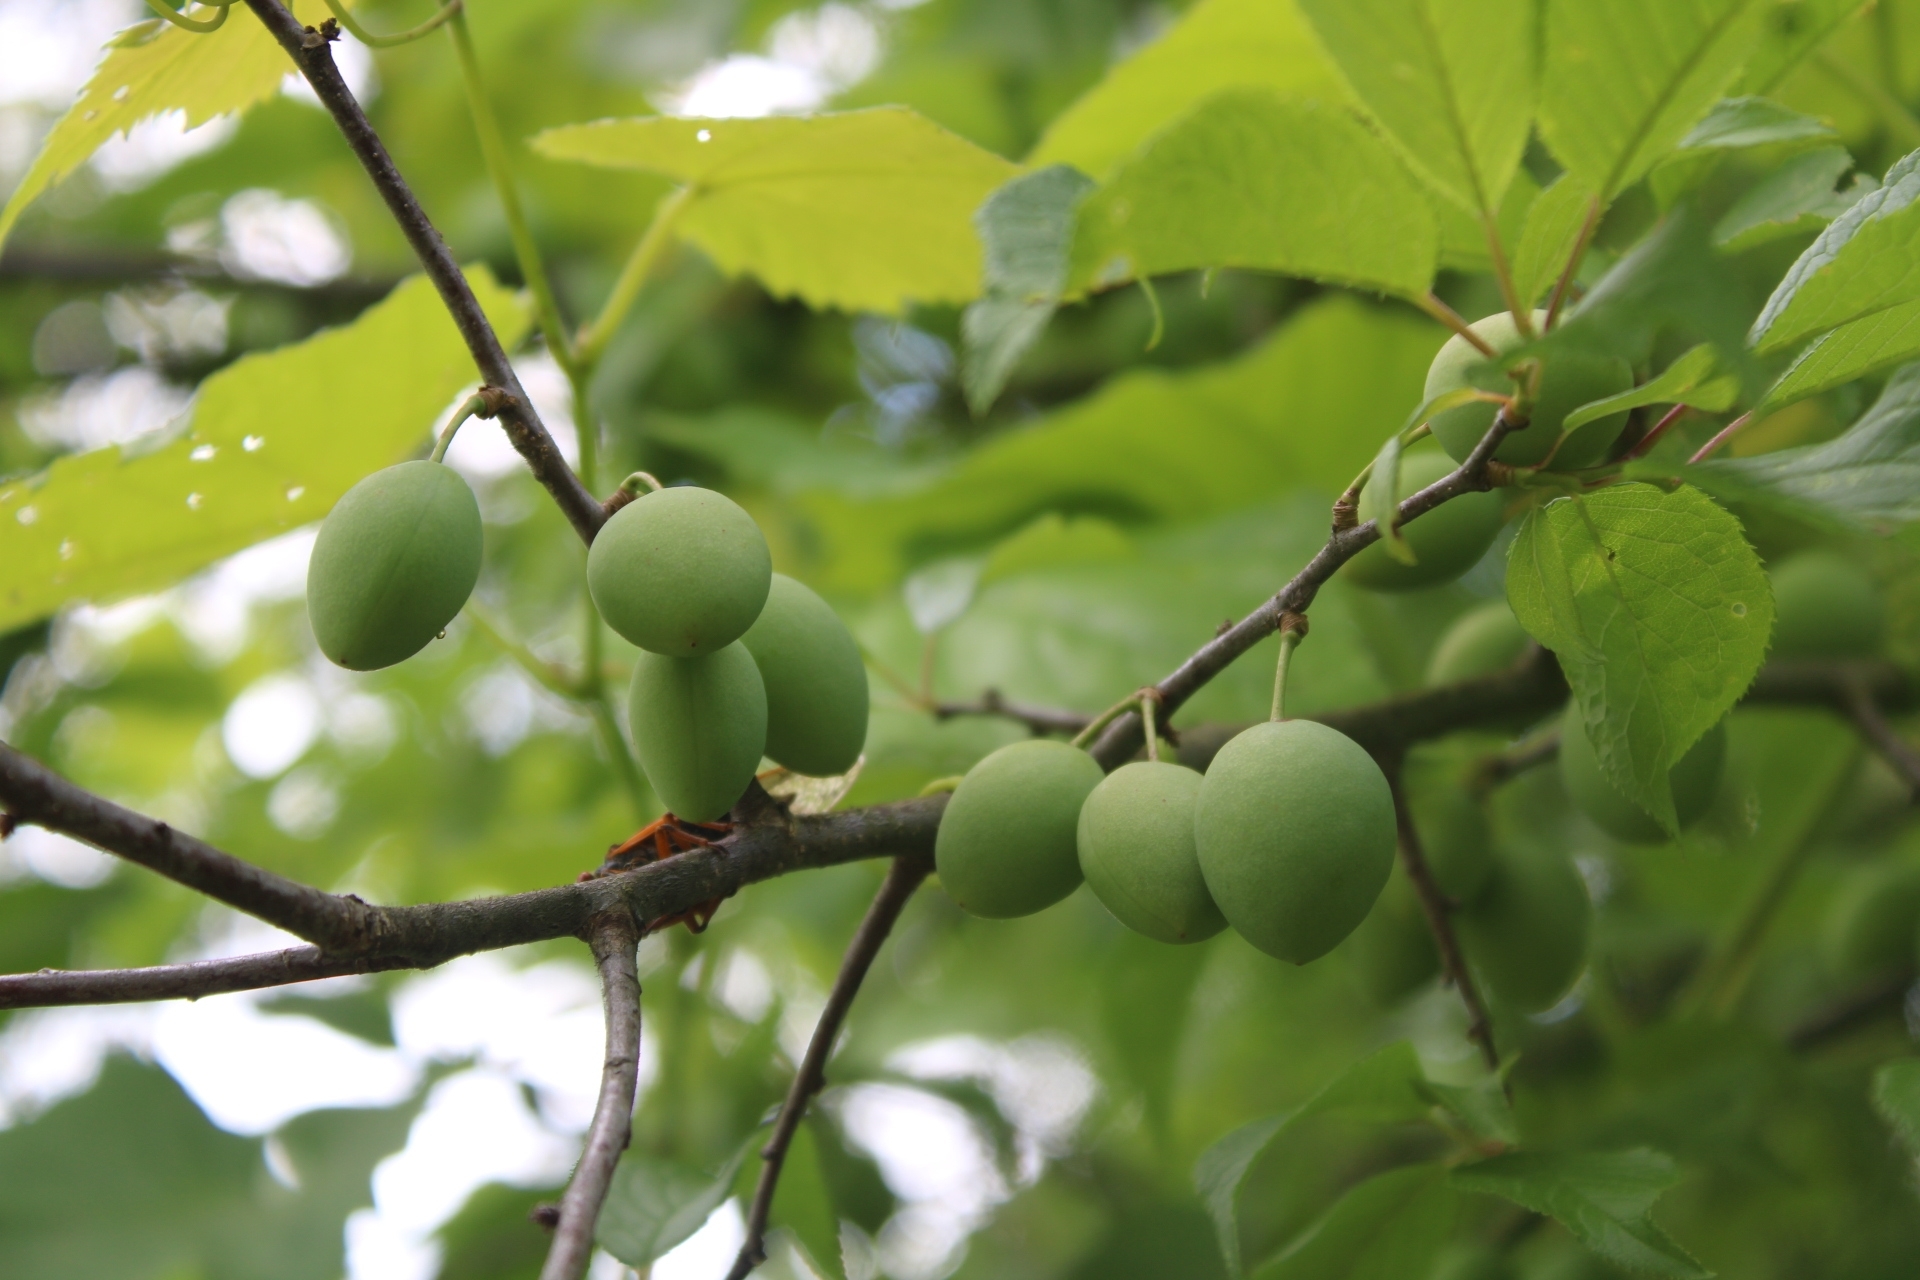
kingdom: Animalia
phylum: Arthropoda
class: Insecta
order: Hemiptera
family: Cicadidae
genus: Magicicada
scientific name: Magicicada
